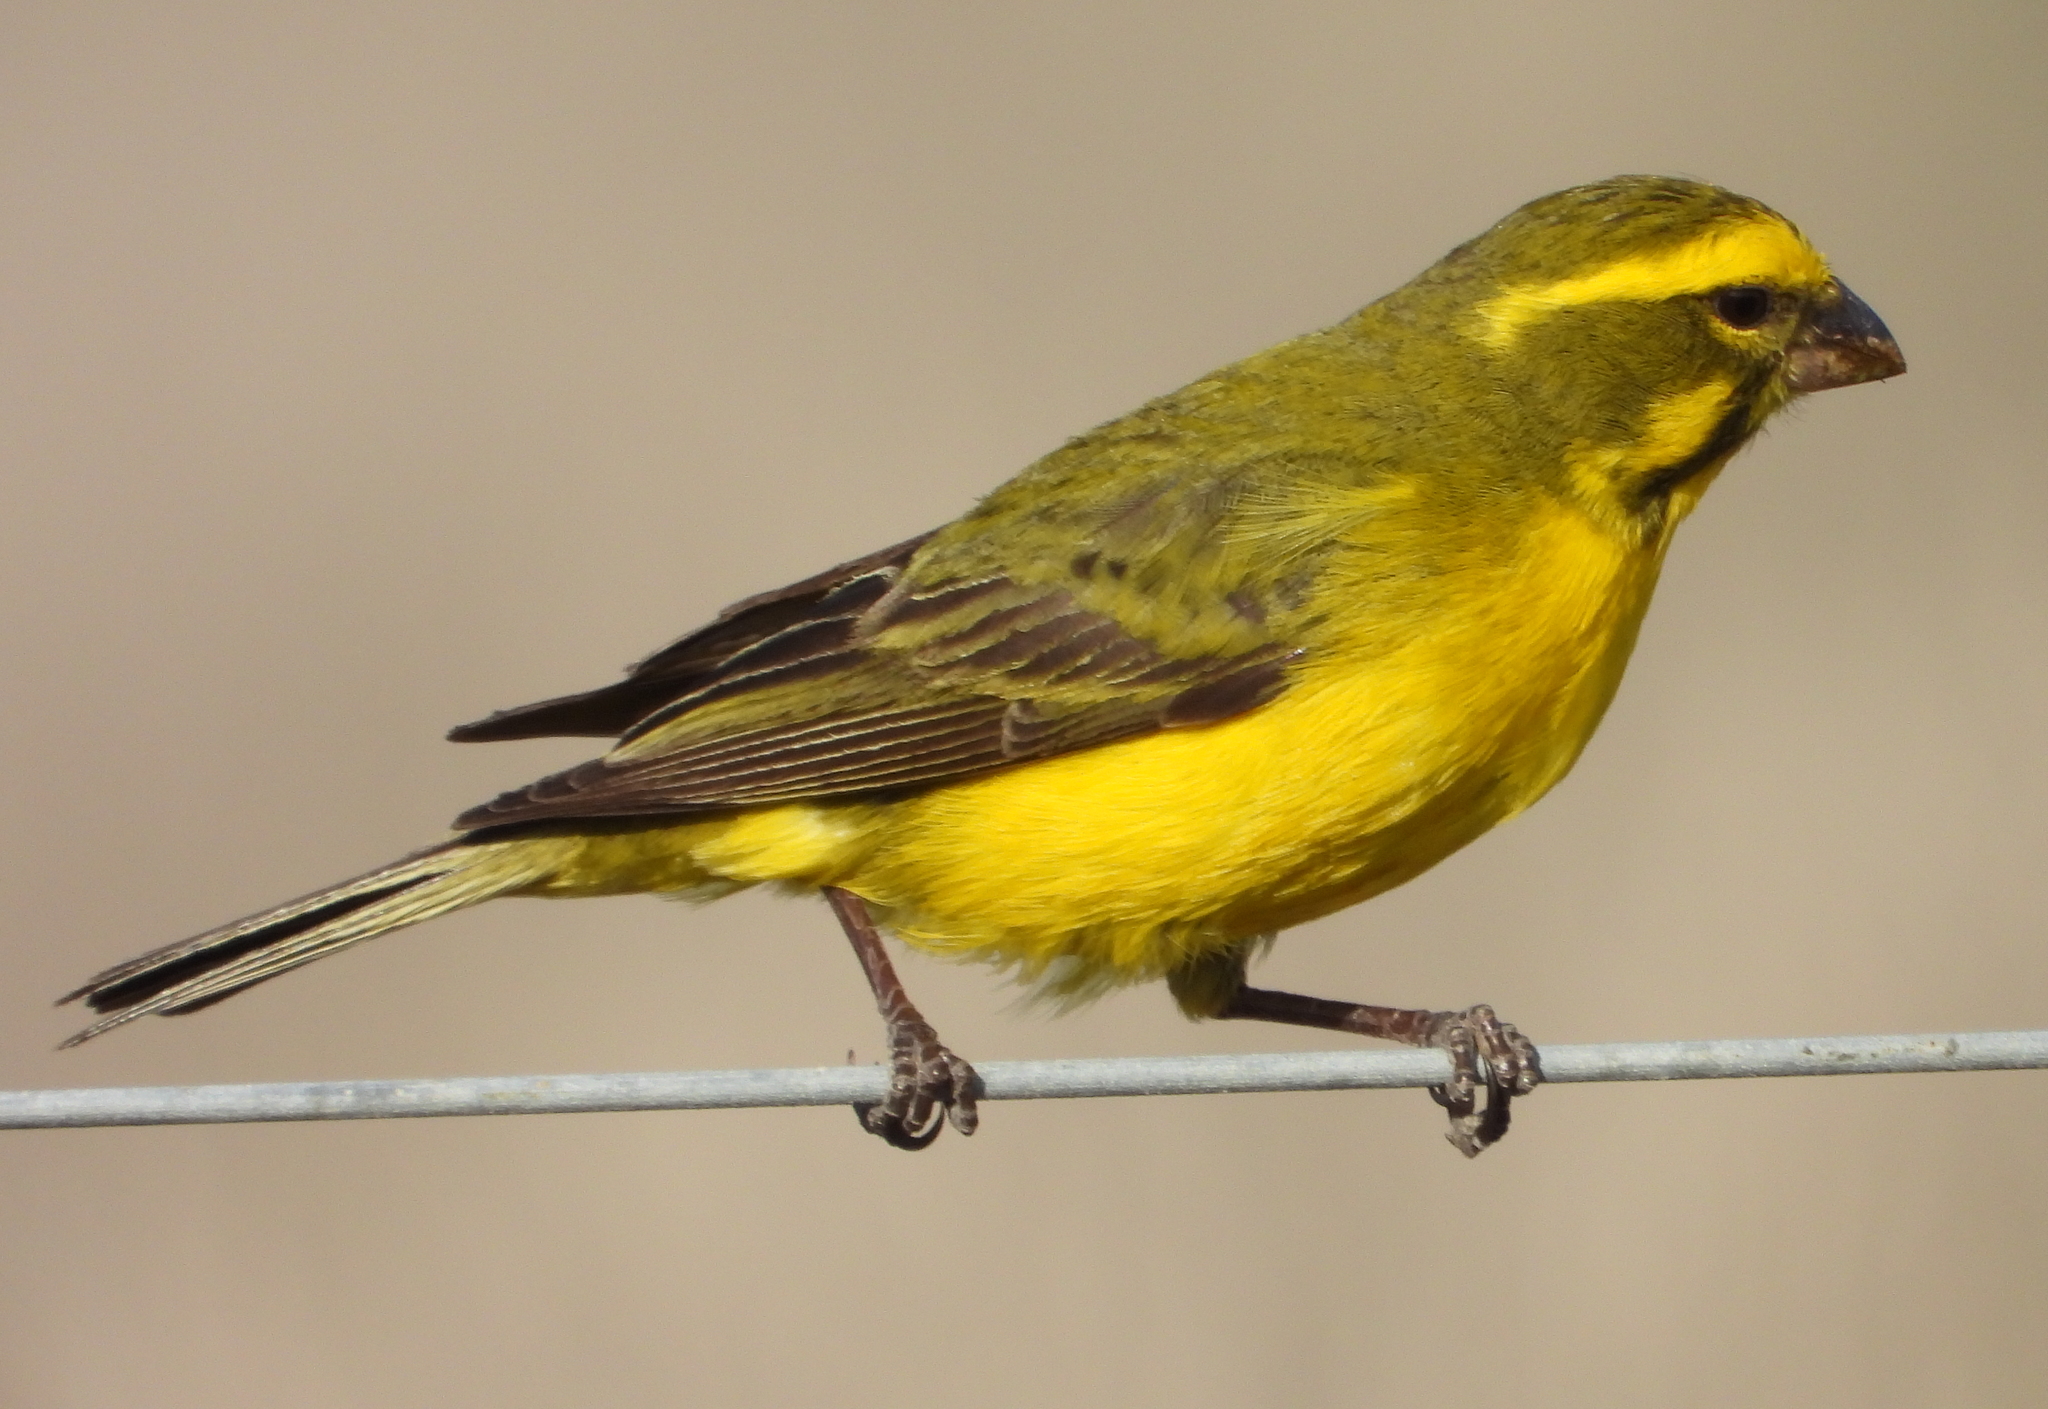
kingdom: Animalia
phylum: Chordata
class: Aves
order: Passeriformes
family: Fringillidae
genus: Crithagra
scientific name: Crithagra flaviventris
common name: Yellow canary
